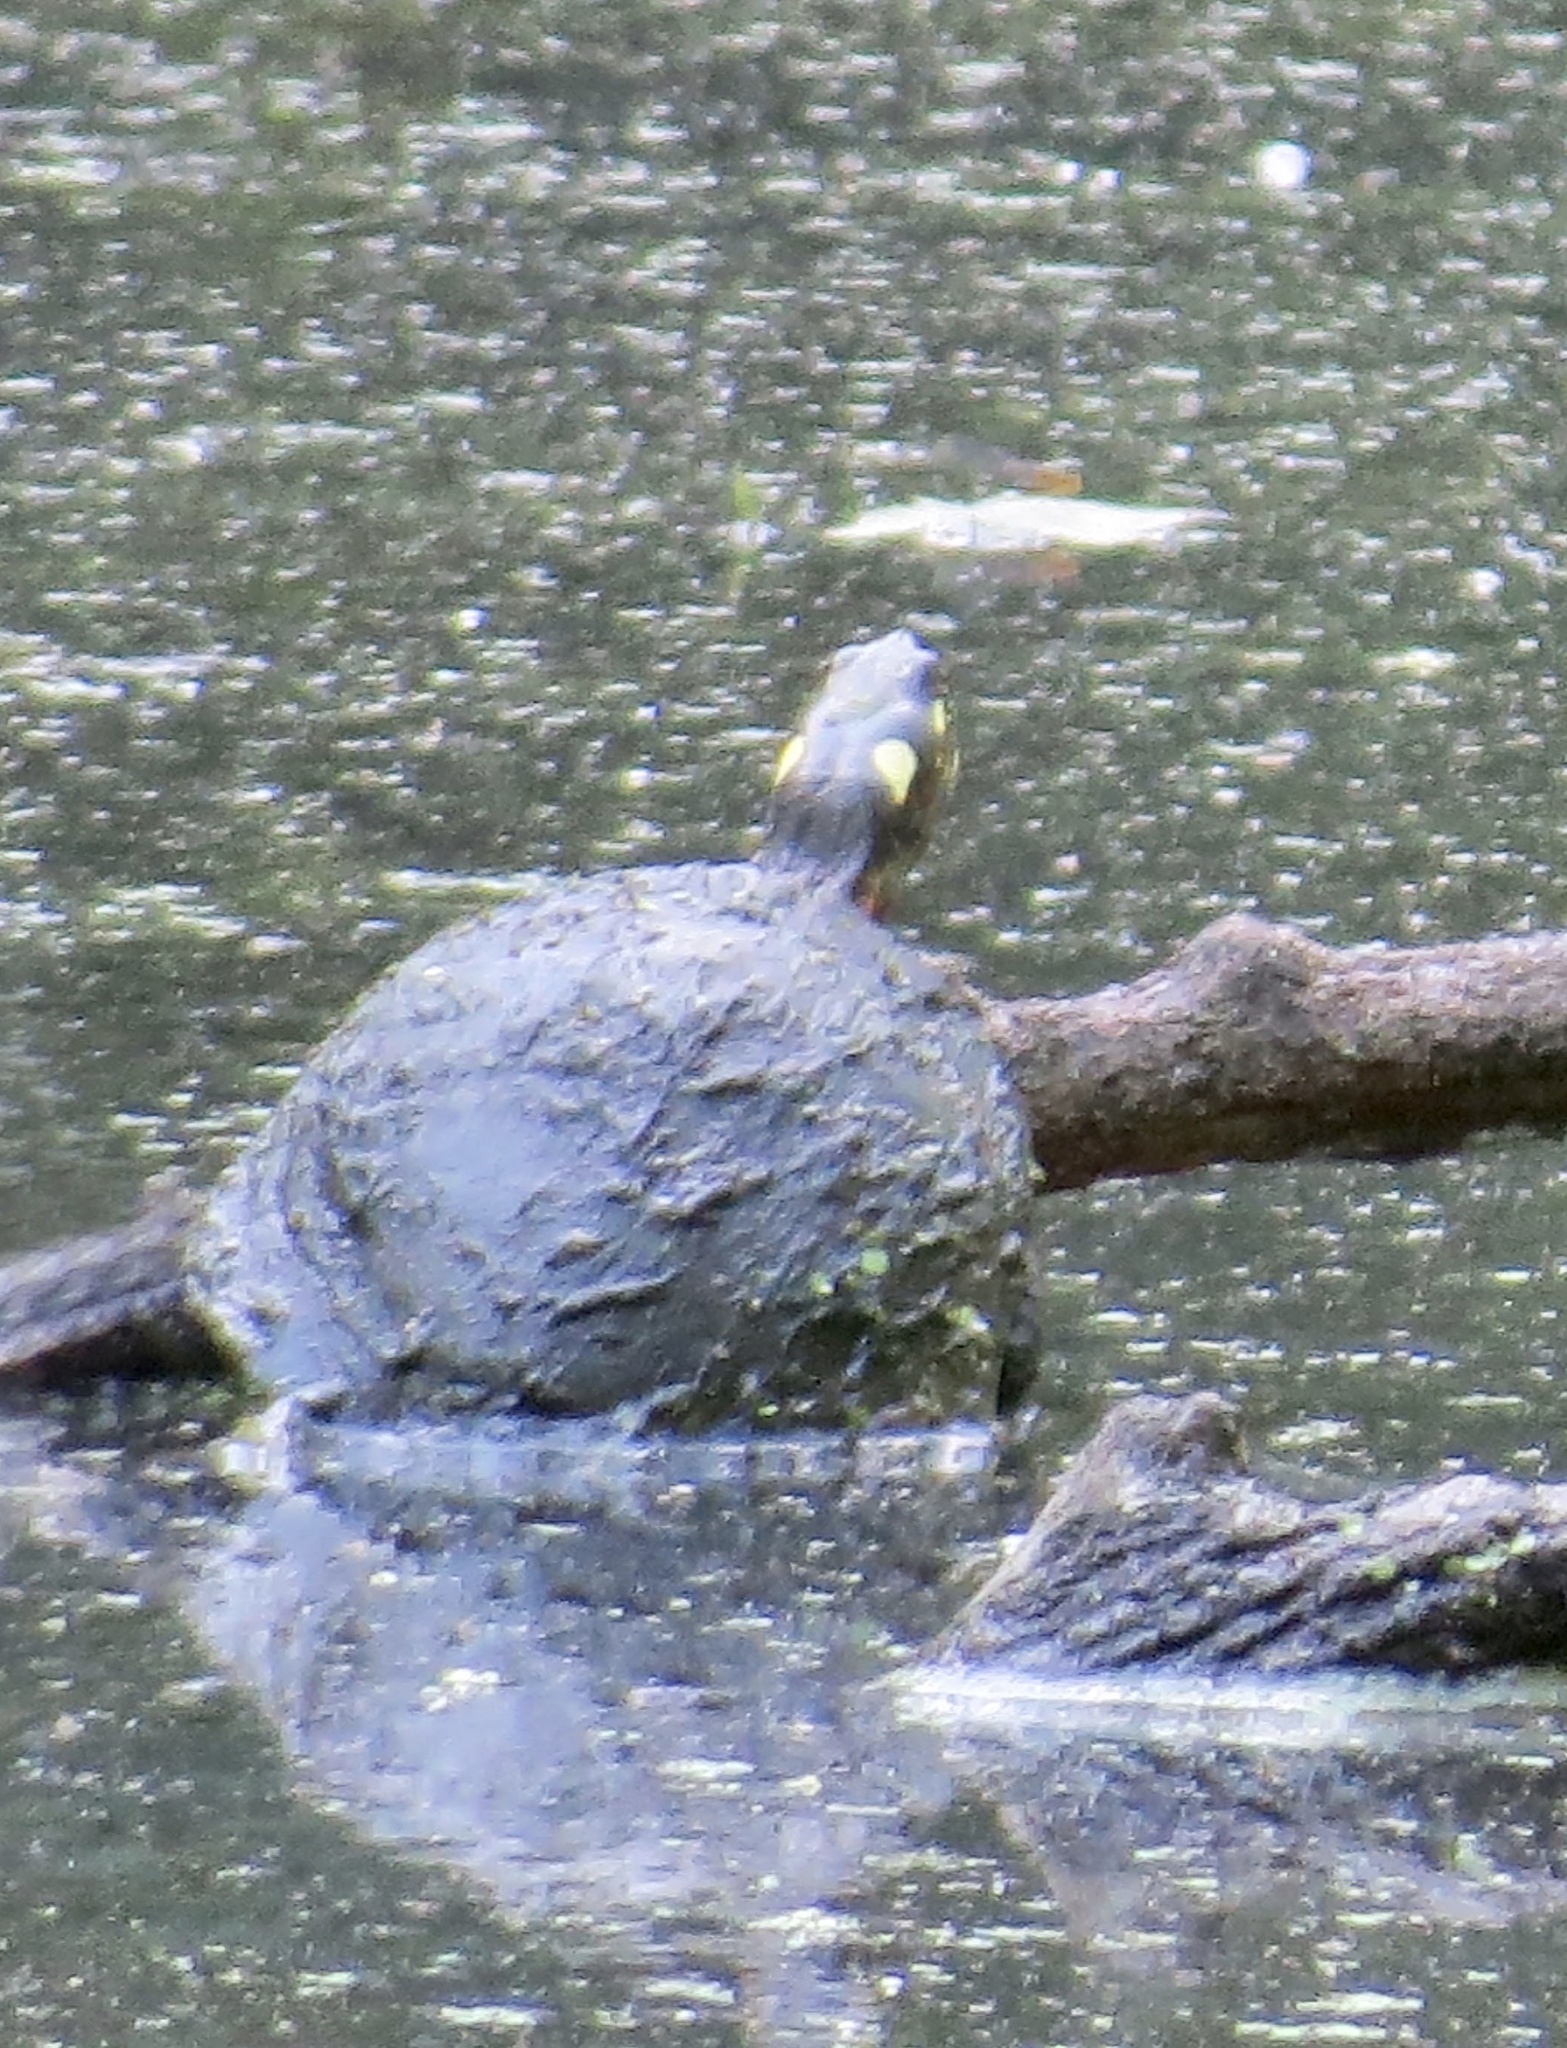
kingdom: Animalia
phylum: Chordata
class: Testudines
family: Emydidae
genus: Chrysemys
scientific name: Chrysemys picta
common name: Painted turtle
